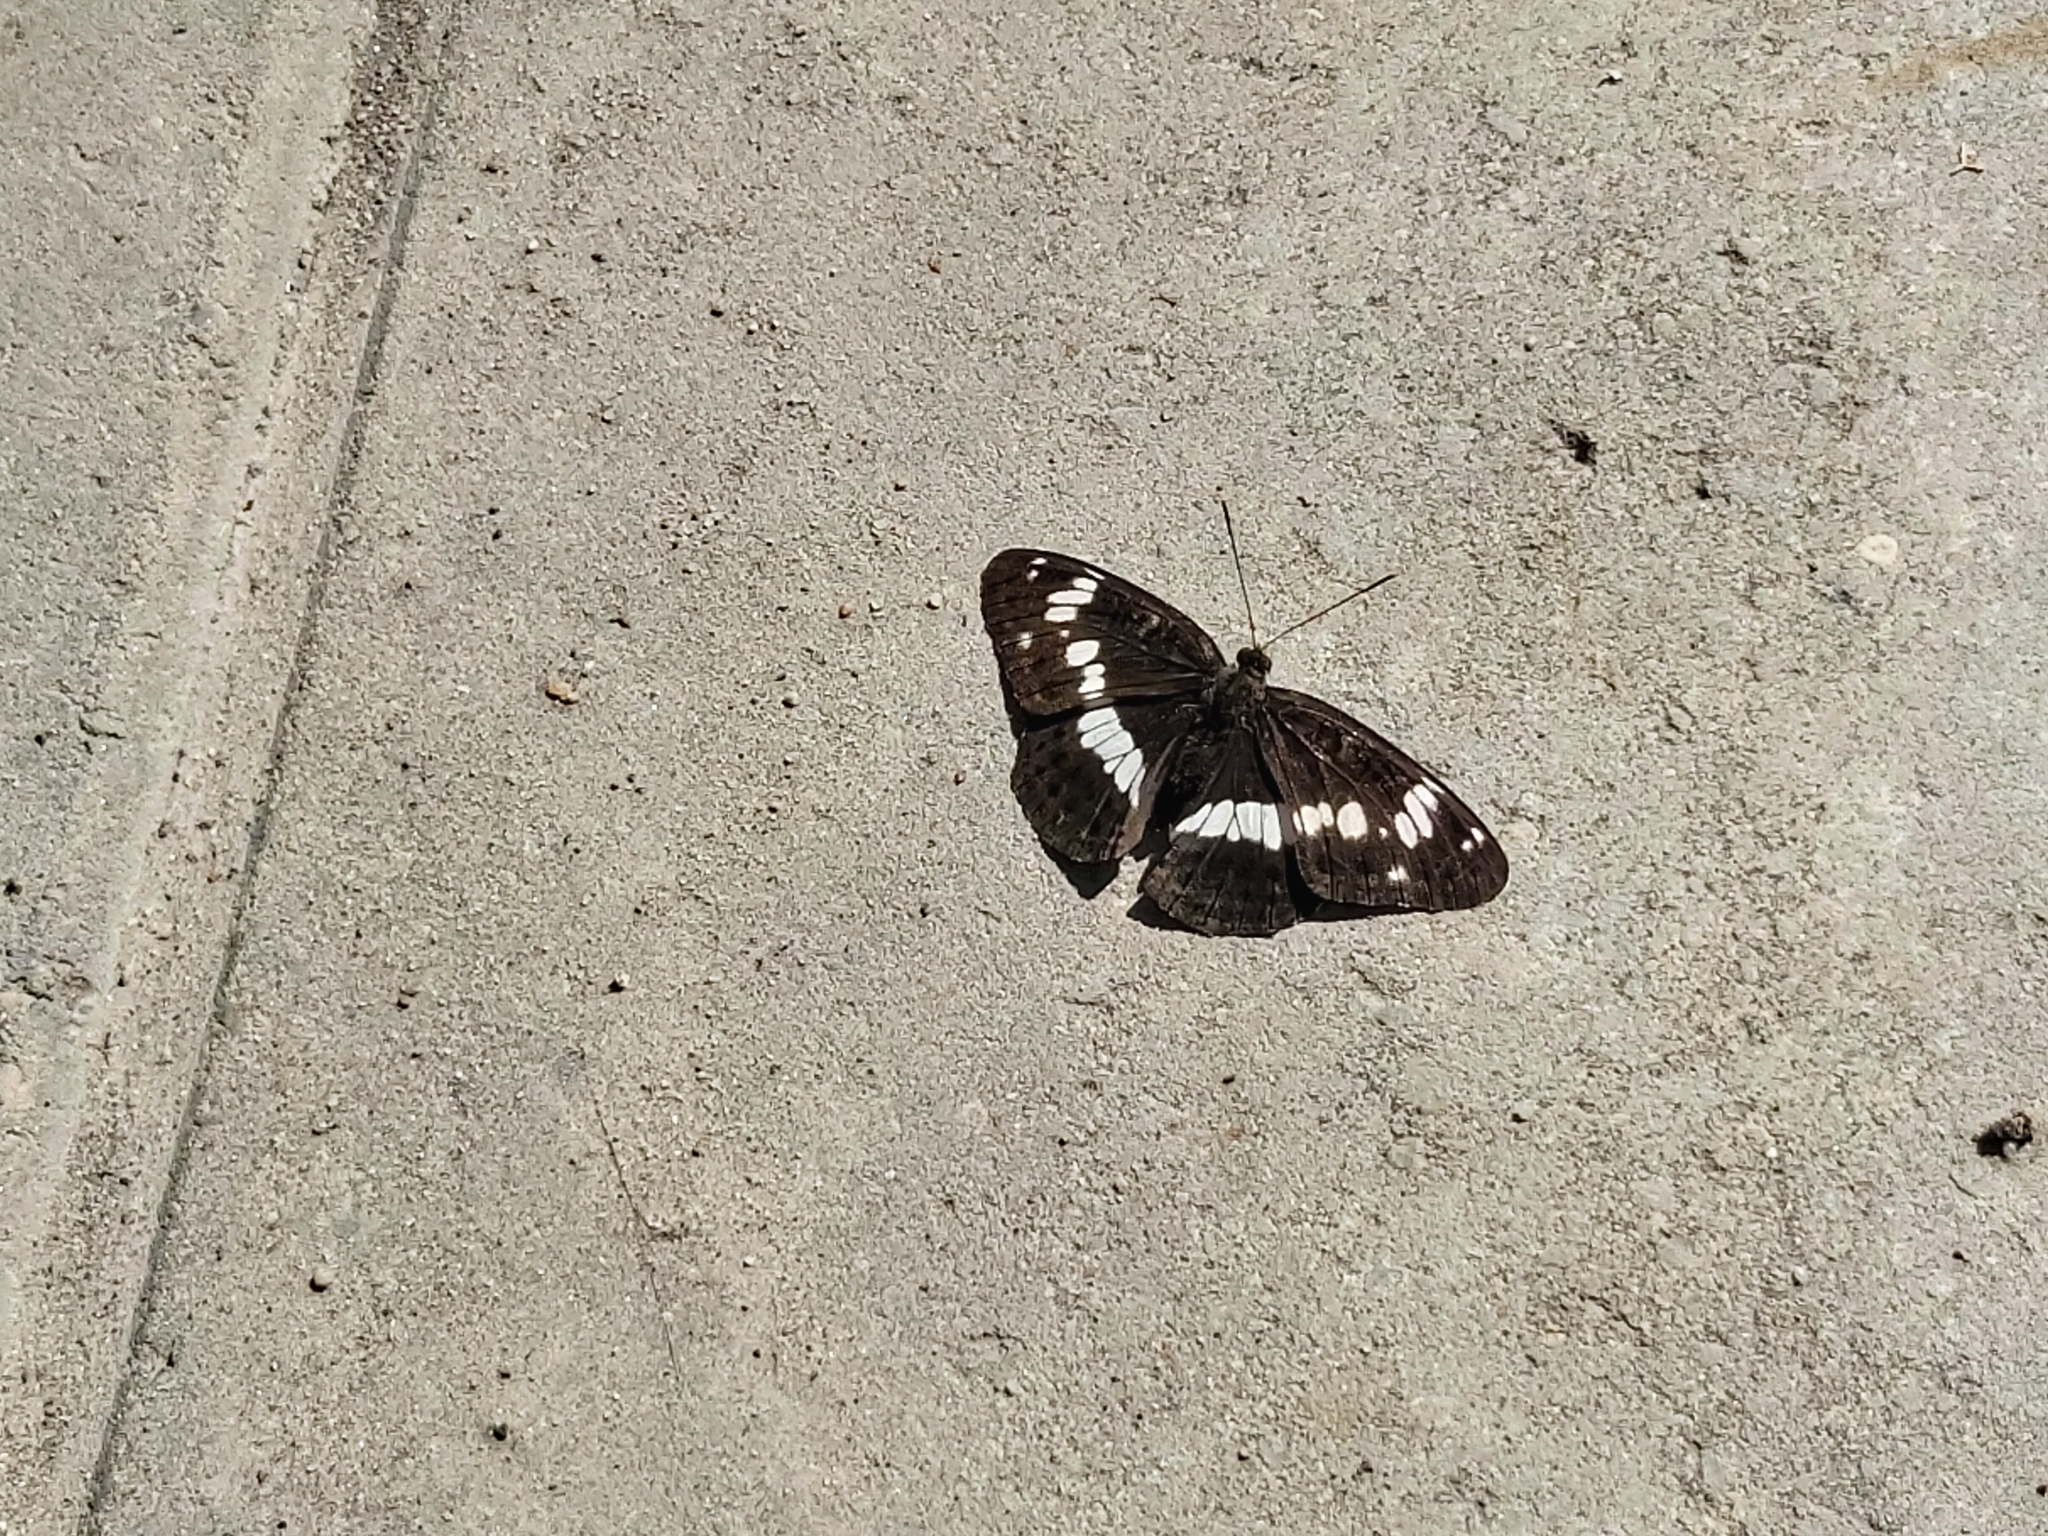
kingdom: Animalia
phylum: Arthropoda
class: Insecta
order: Lepidoptera
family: Nymphalidae
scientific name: Nymphalidae
